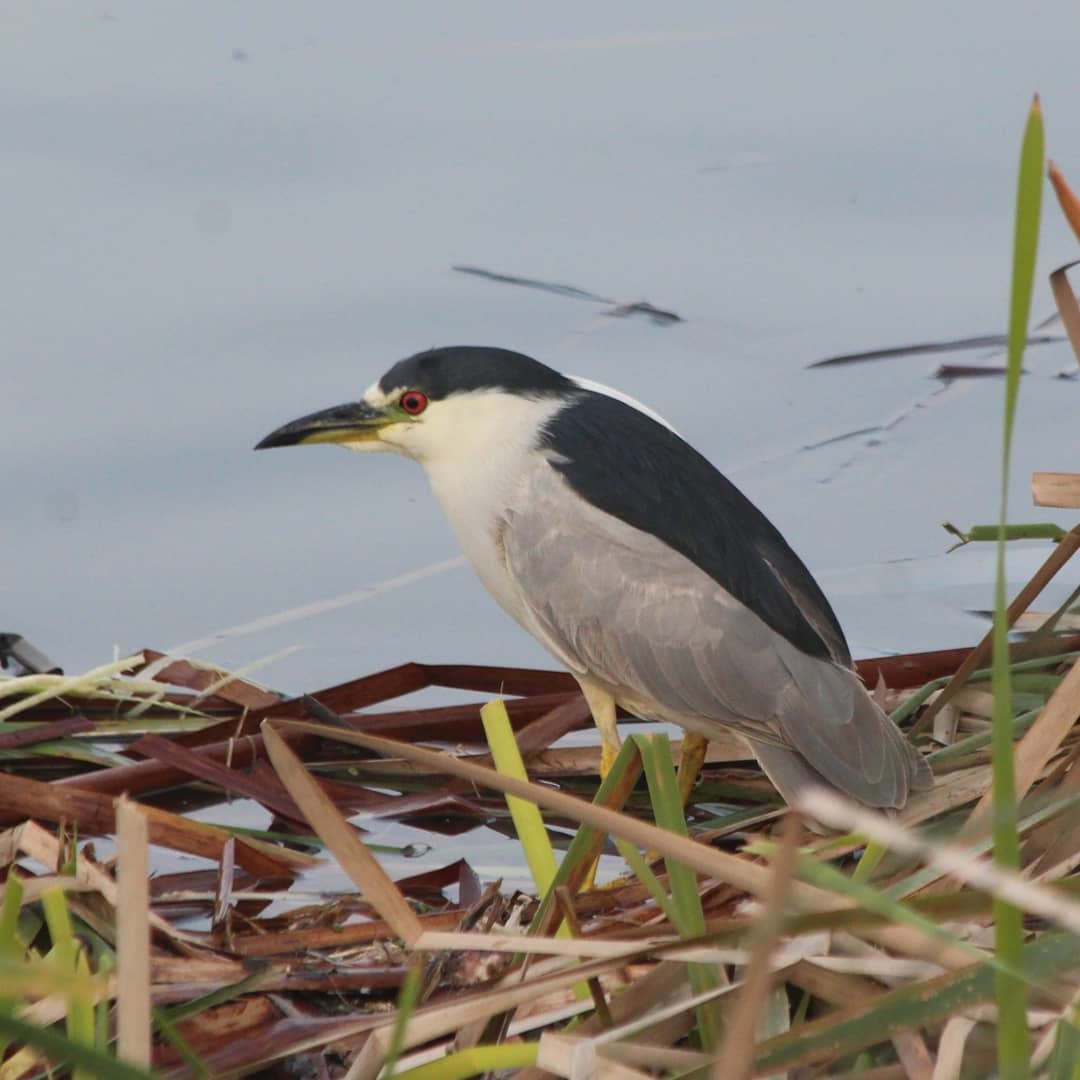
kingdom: Animalia
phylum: Chordata
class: Aves
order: Pelecaniformes
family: Ardeidae
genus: Nycticorax
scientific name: Nycticorax nycticorax
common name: Black-crowned night heron
